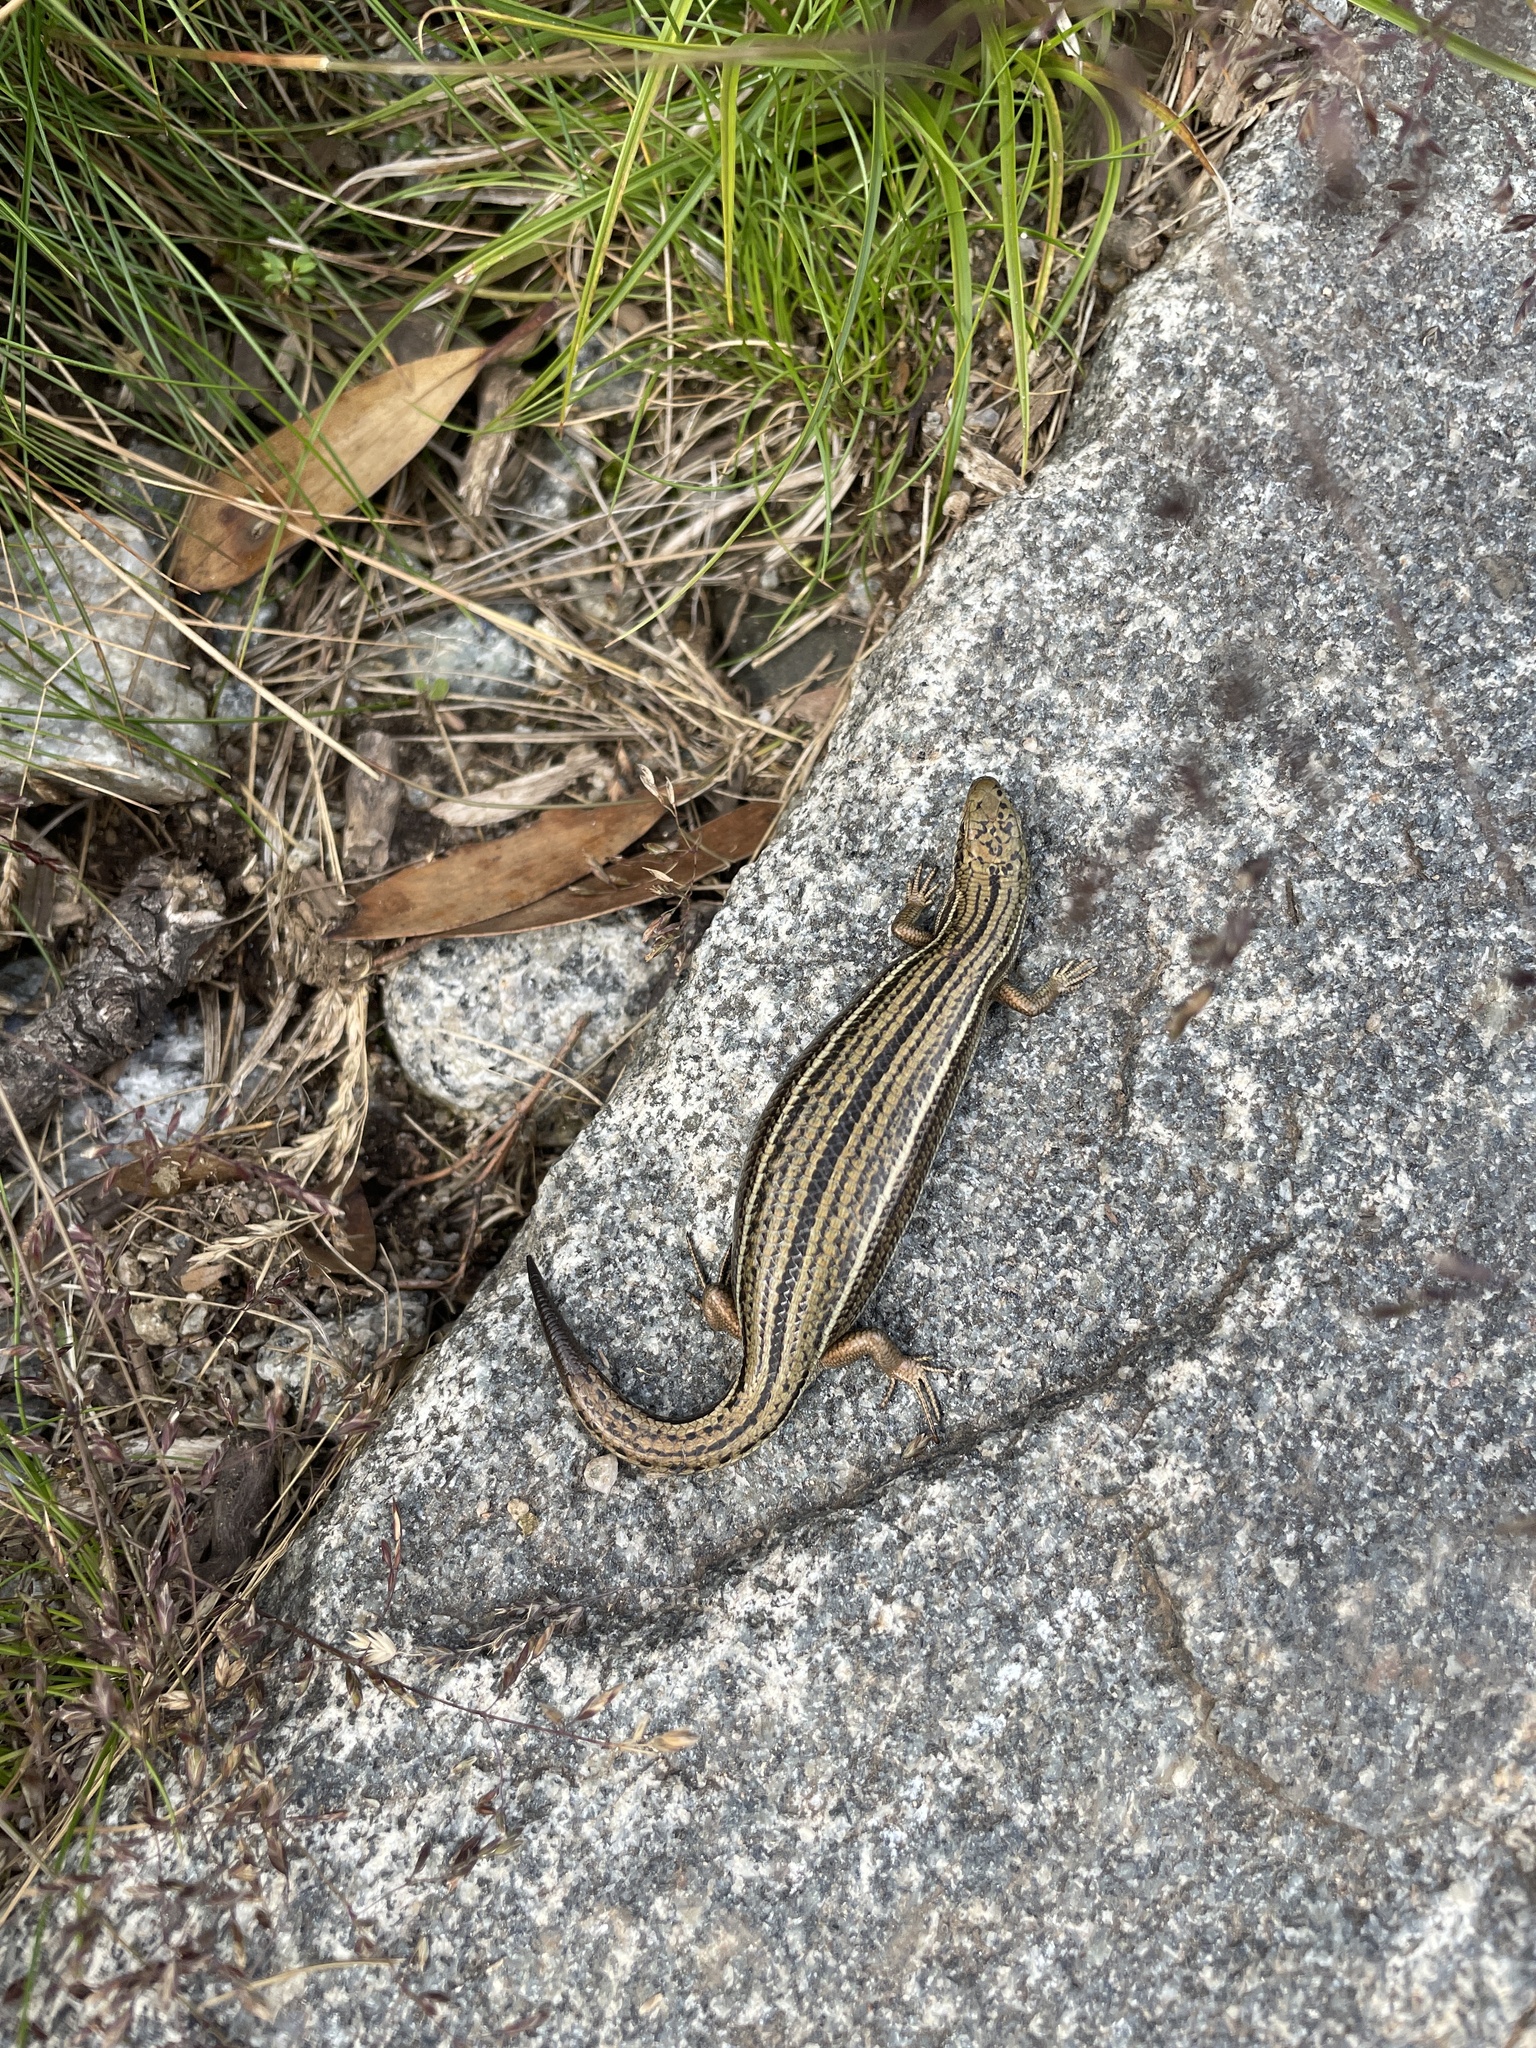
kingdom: Animalia
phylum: Chordata
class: Squamata
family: Scincidae
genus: Pseudemoia
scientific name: Pseudemoia pagenstecheri
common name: Southern grass tussock skink
